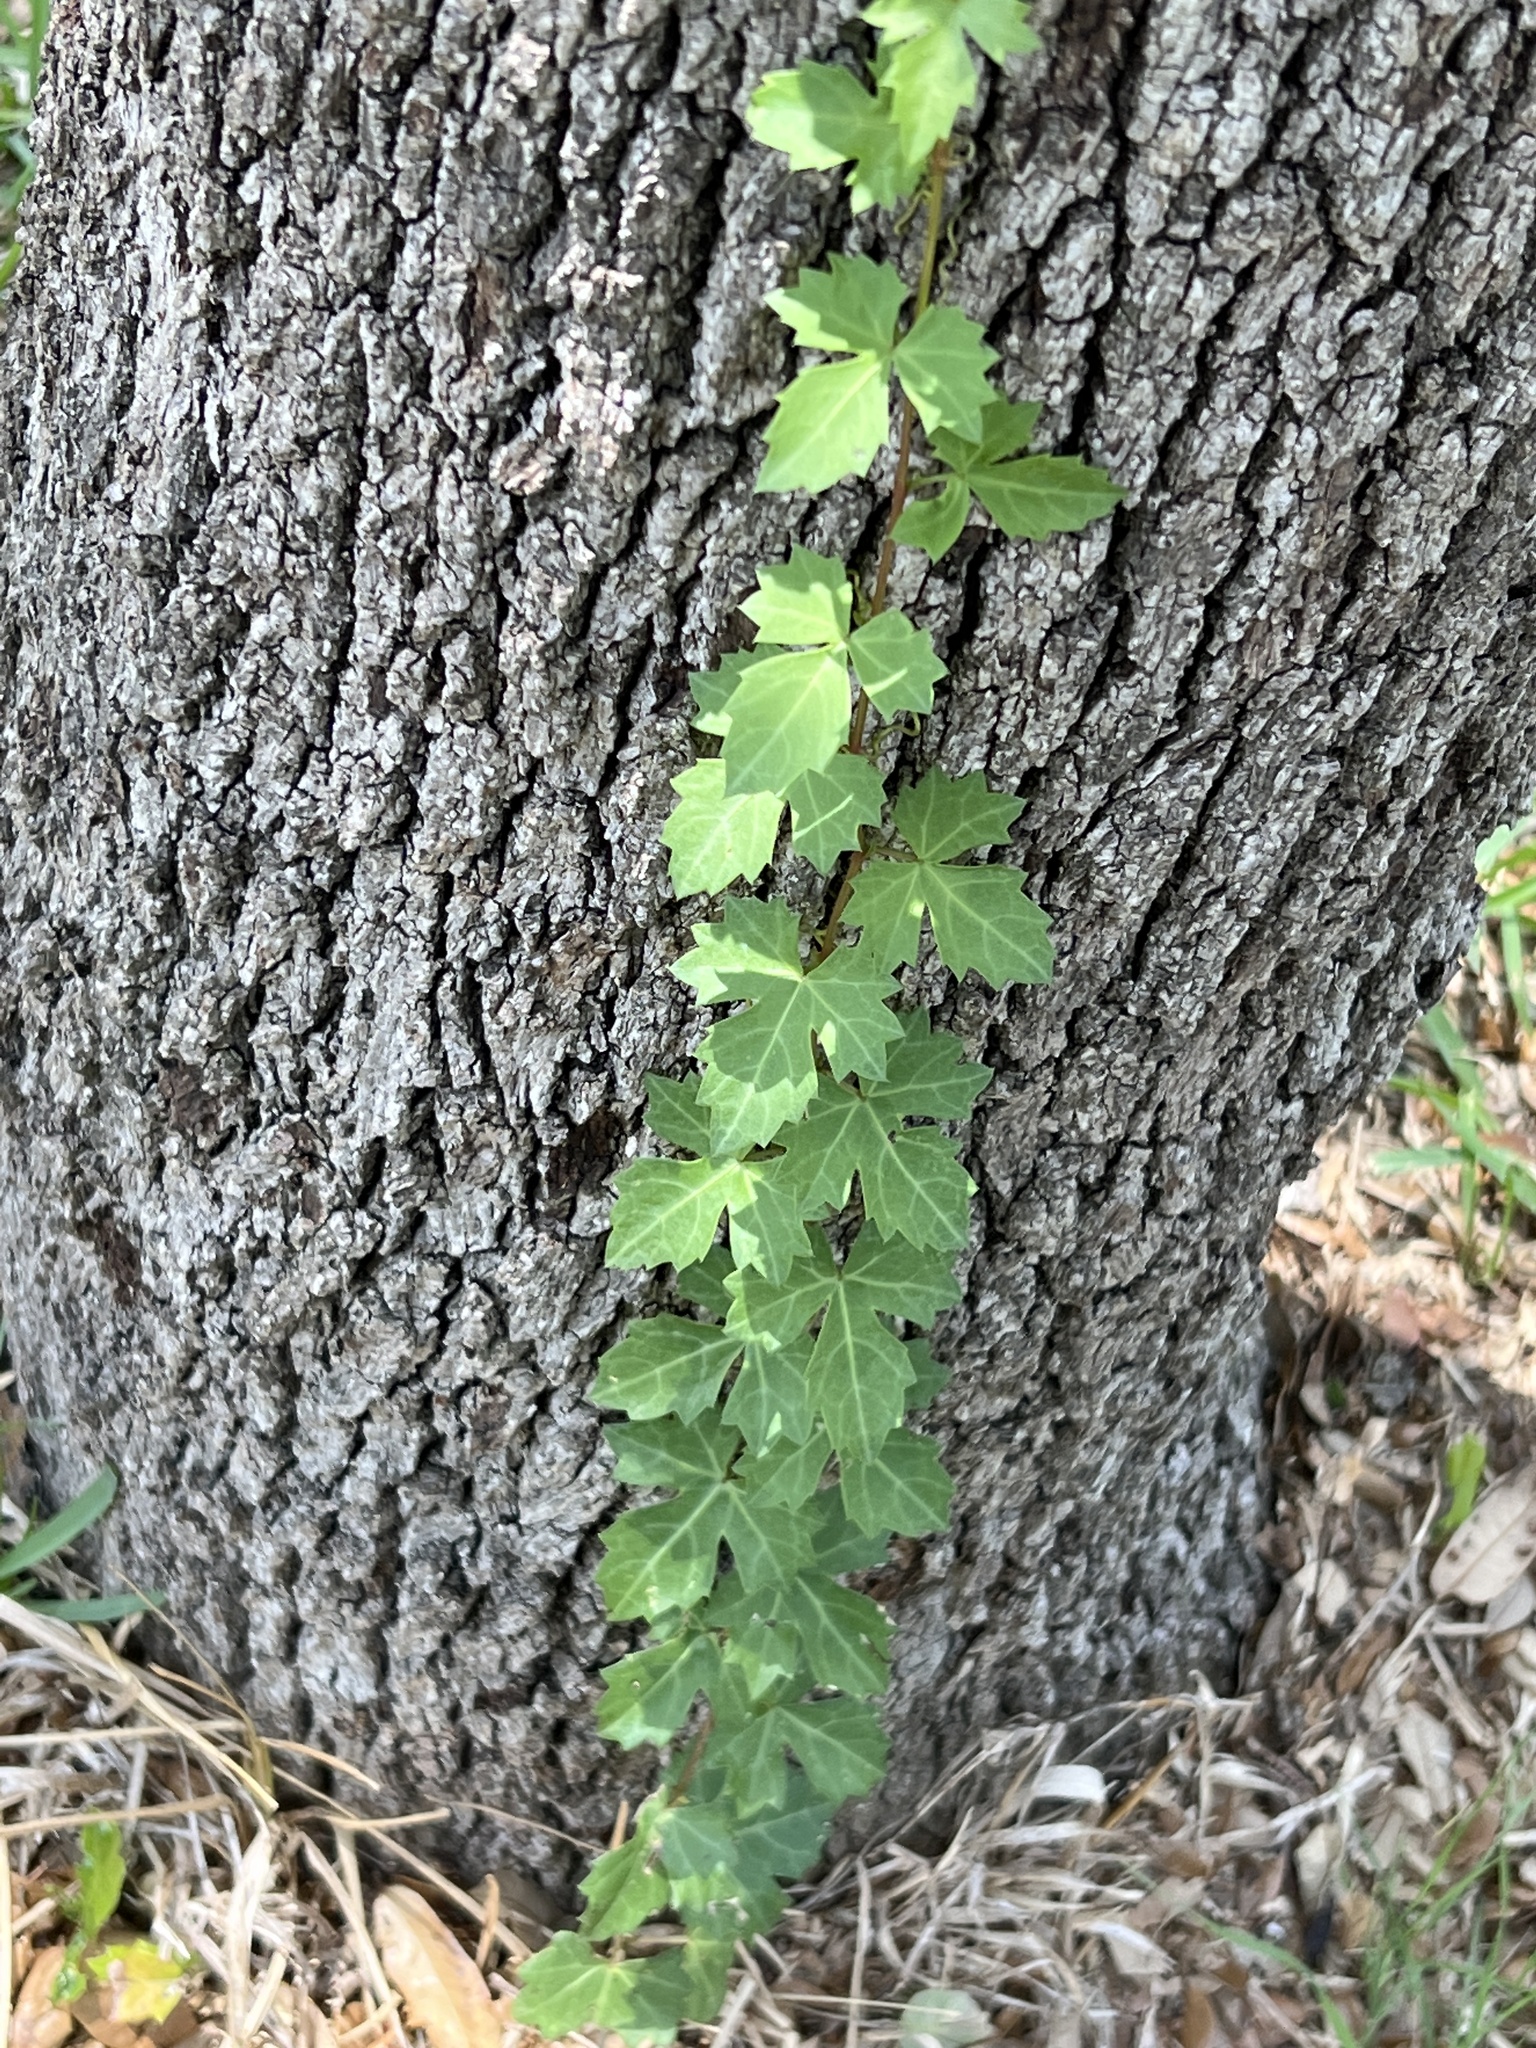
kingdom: Plantae
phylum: Tracheophyta
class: Magnoliopsida
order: Vitales
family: Vitaceae
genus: Cissus
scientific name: Cissus trifoliata
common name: Vine-sorrel
